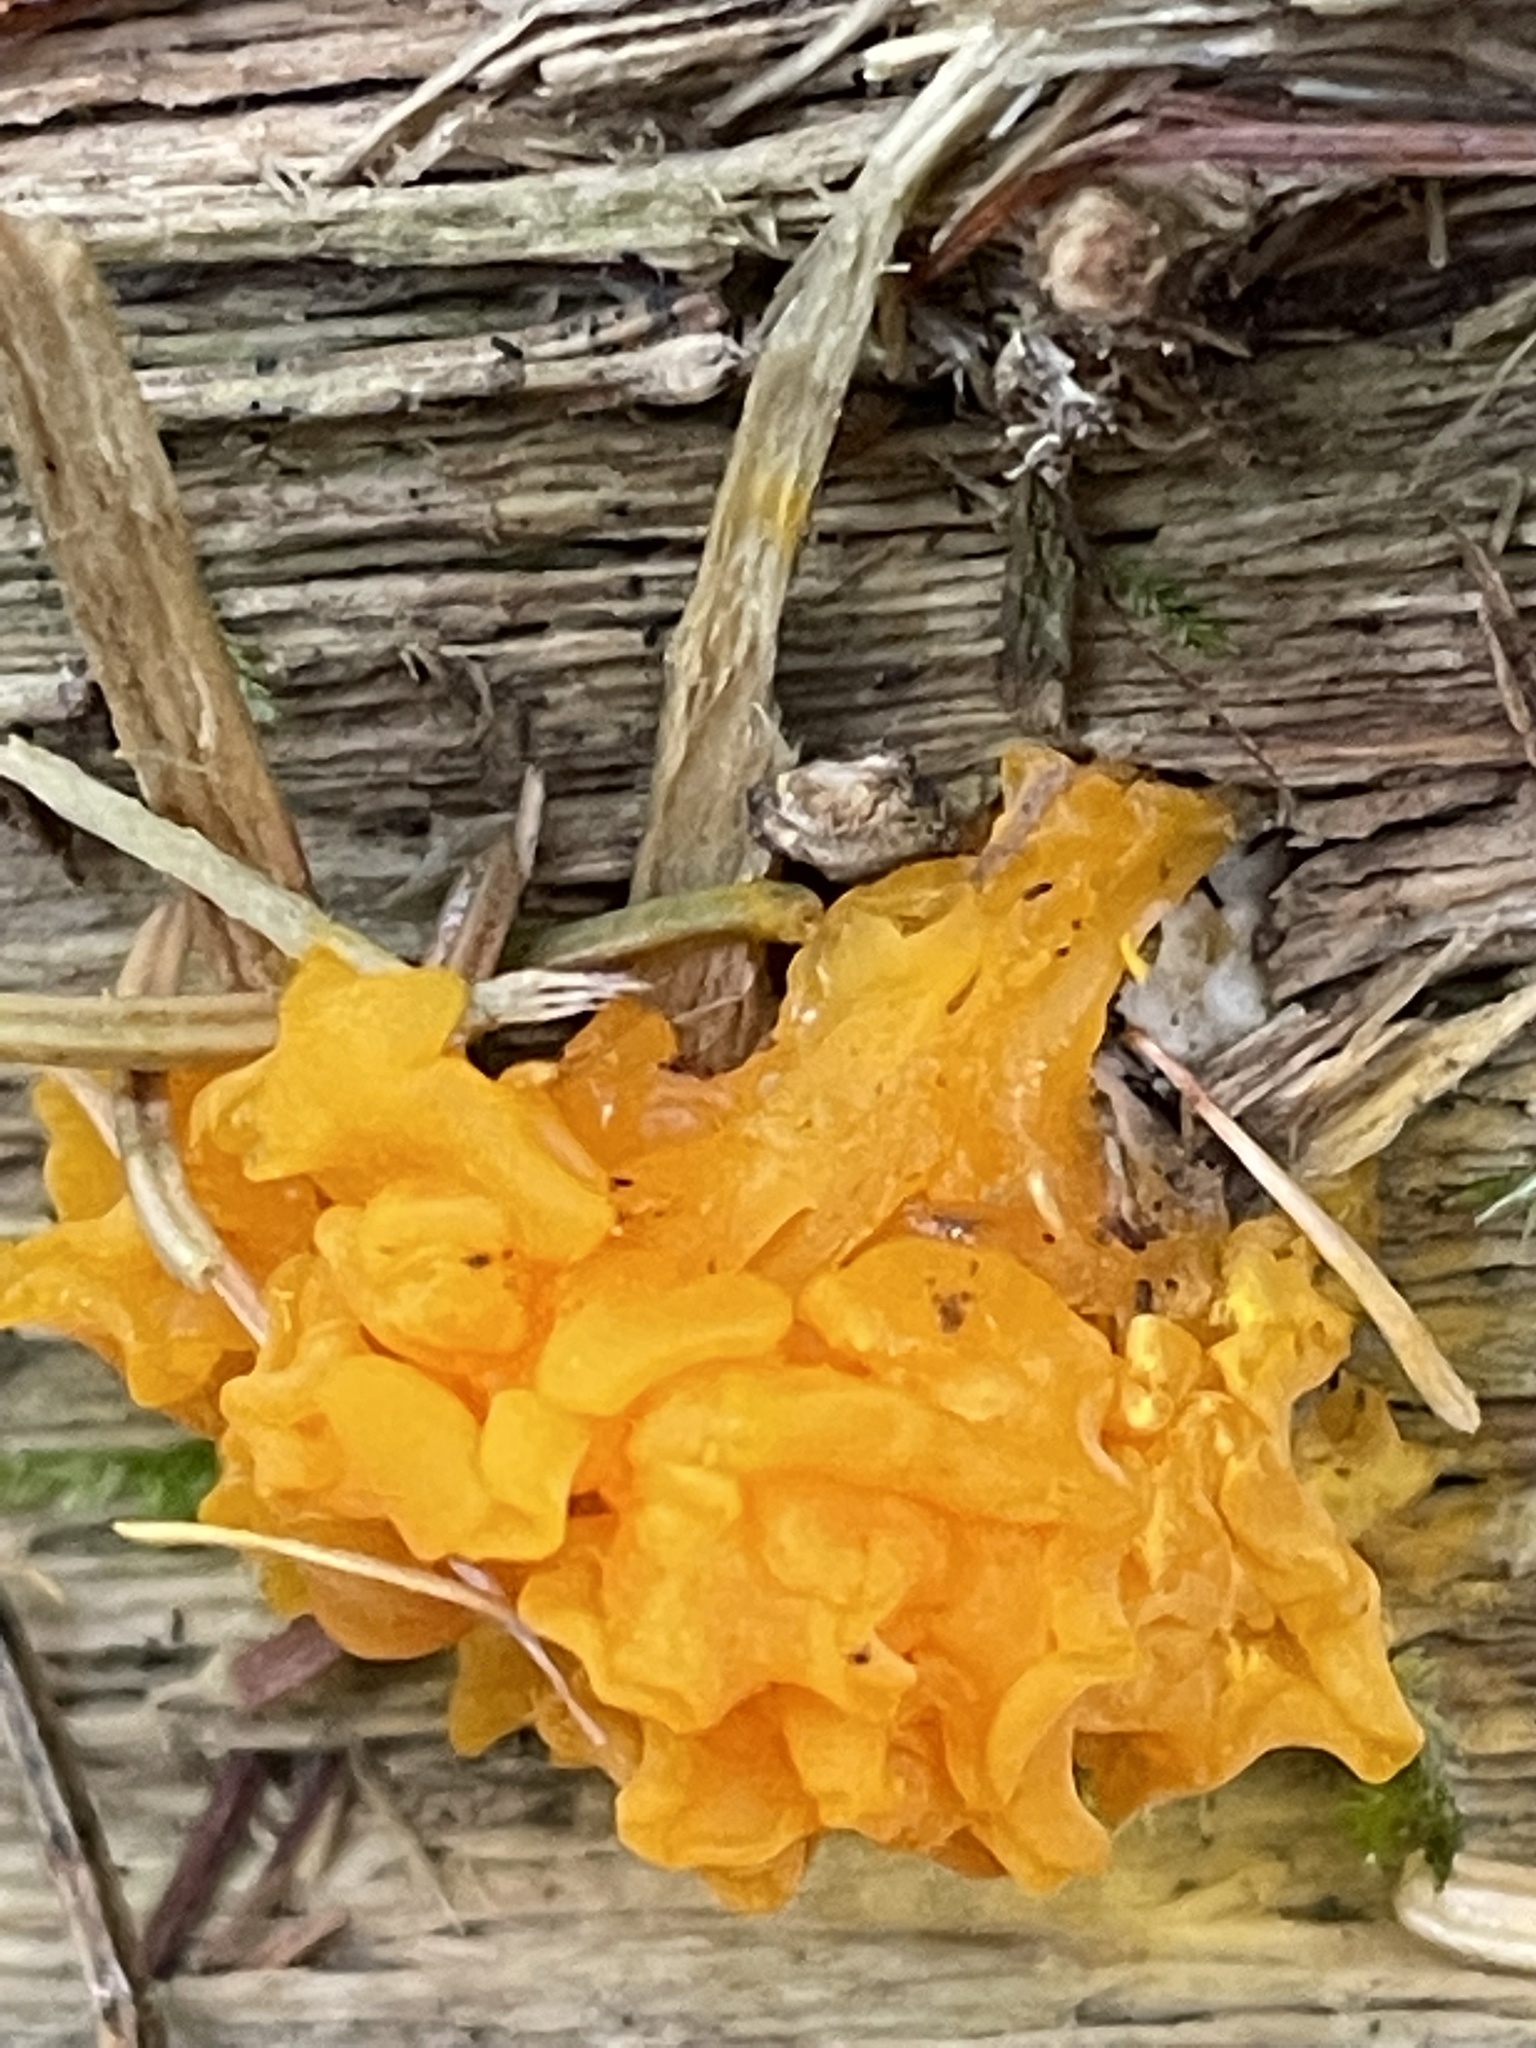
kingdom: Fungi
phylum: Basidiomycota
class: Dacrymycetes
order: Dacrymycetales
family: Dacrymycetaceae
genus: Dacrymyces
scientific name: Dacrymyces chrysospermus
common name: Orange jelly spot
